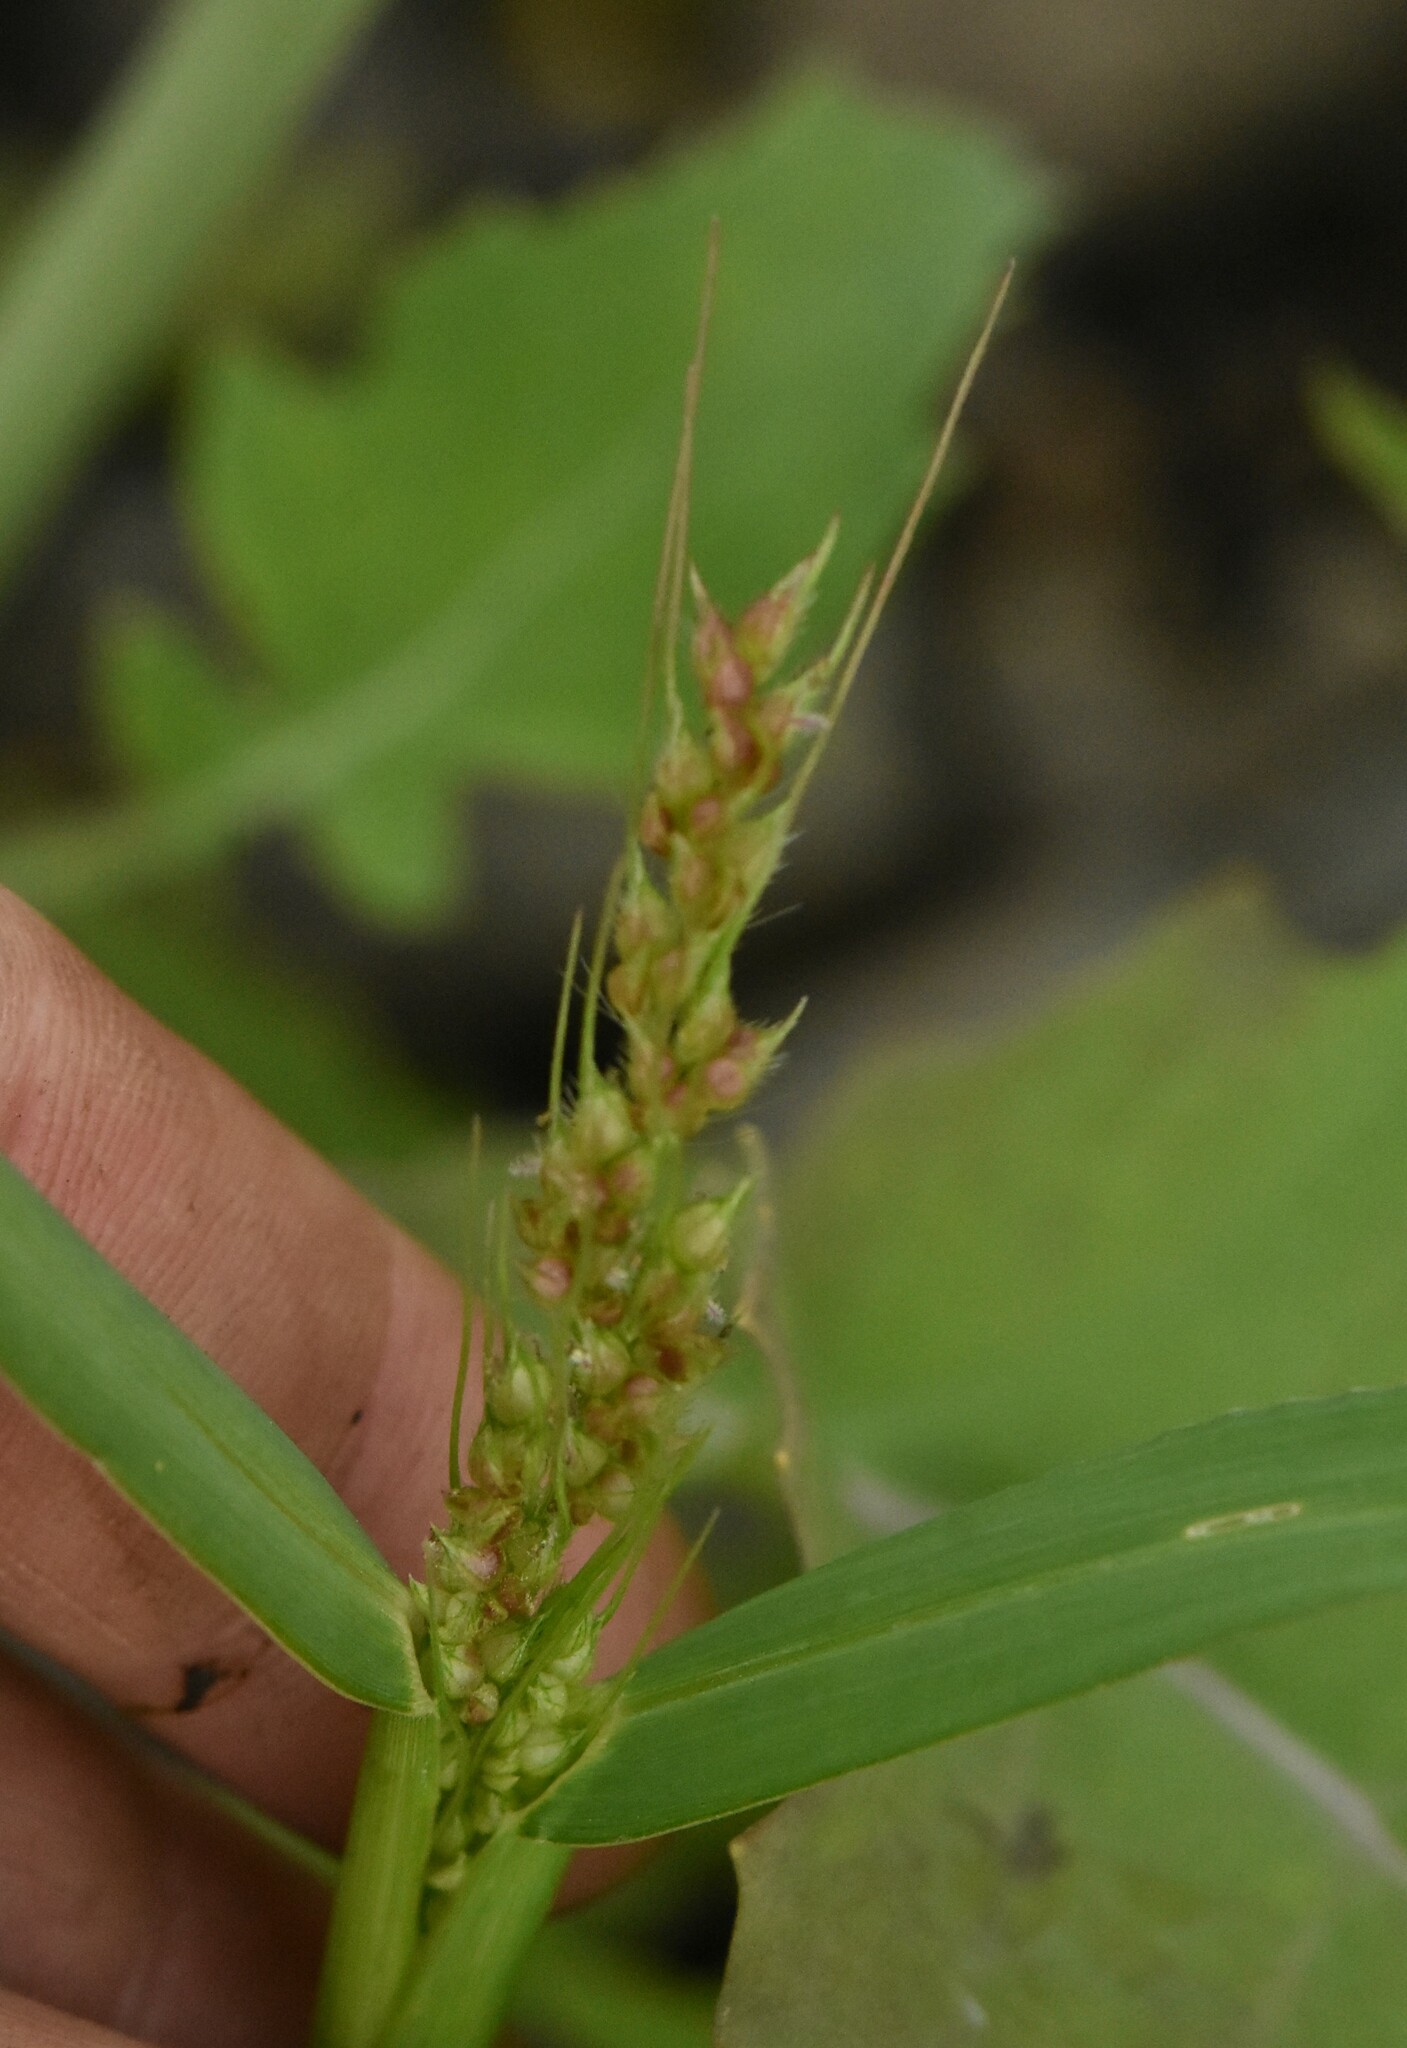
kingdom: Plantae
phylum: Tracheophyta
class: Liliopsida
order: Poales
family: Poaceae
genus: Echinochloa
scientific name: Echinochloa crus-galli
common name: Cockspur
